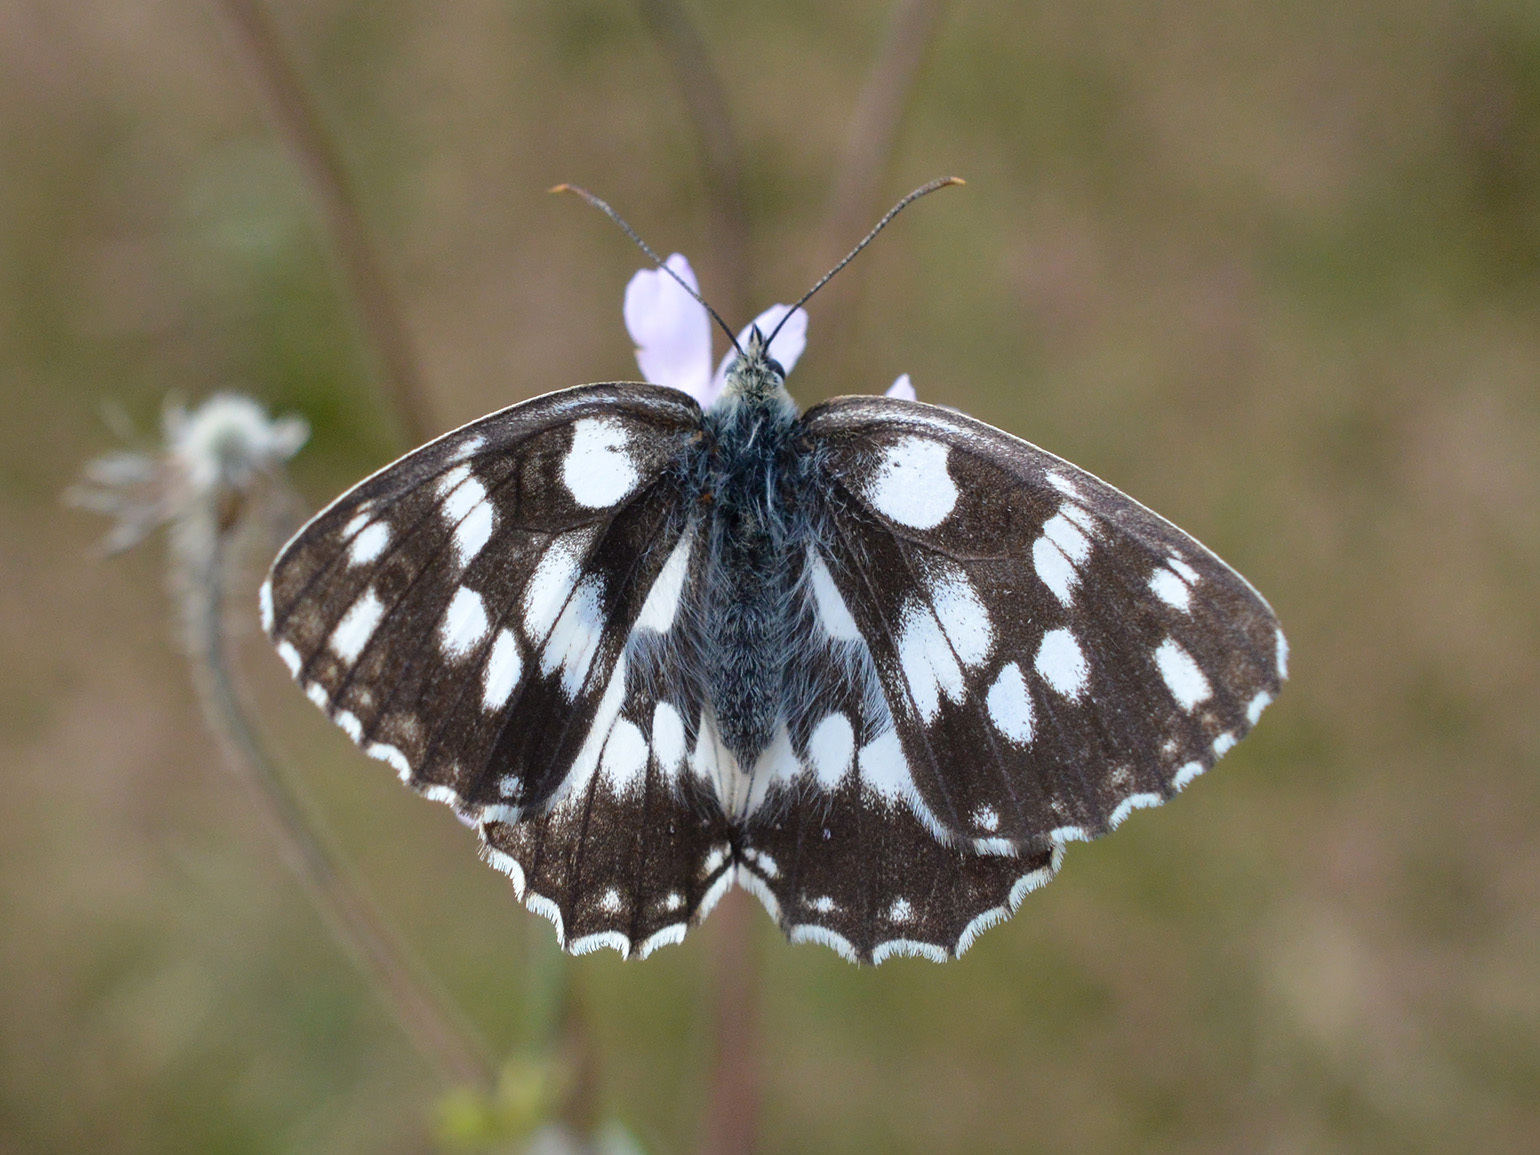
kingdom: Animalia
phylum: Arthropoda
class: Insecta
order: Lepidoptera
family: Nymphalidae
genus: Melanargia
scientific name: Melanargia galathea
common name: Marbled white
